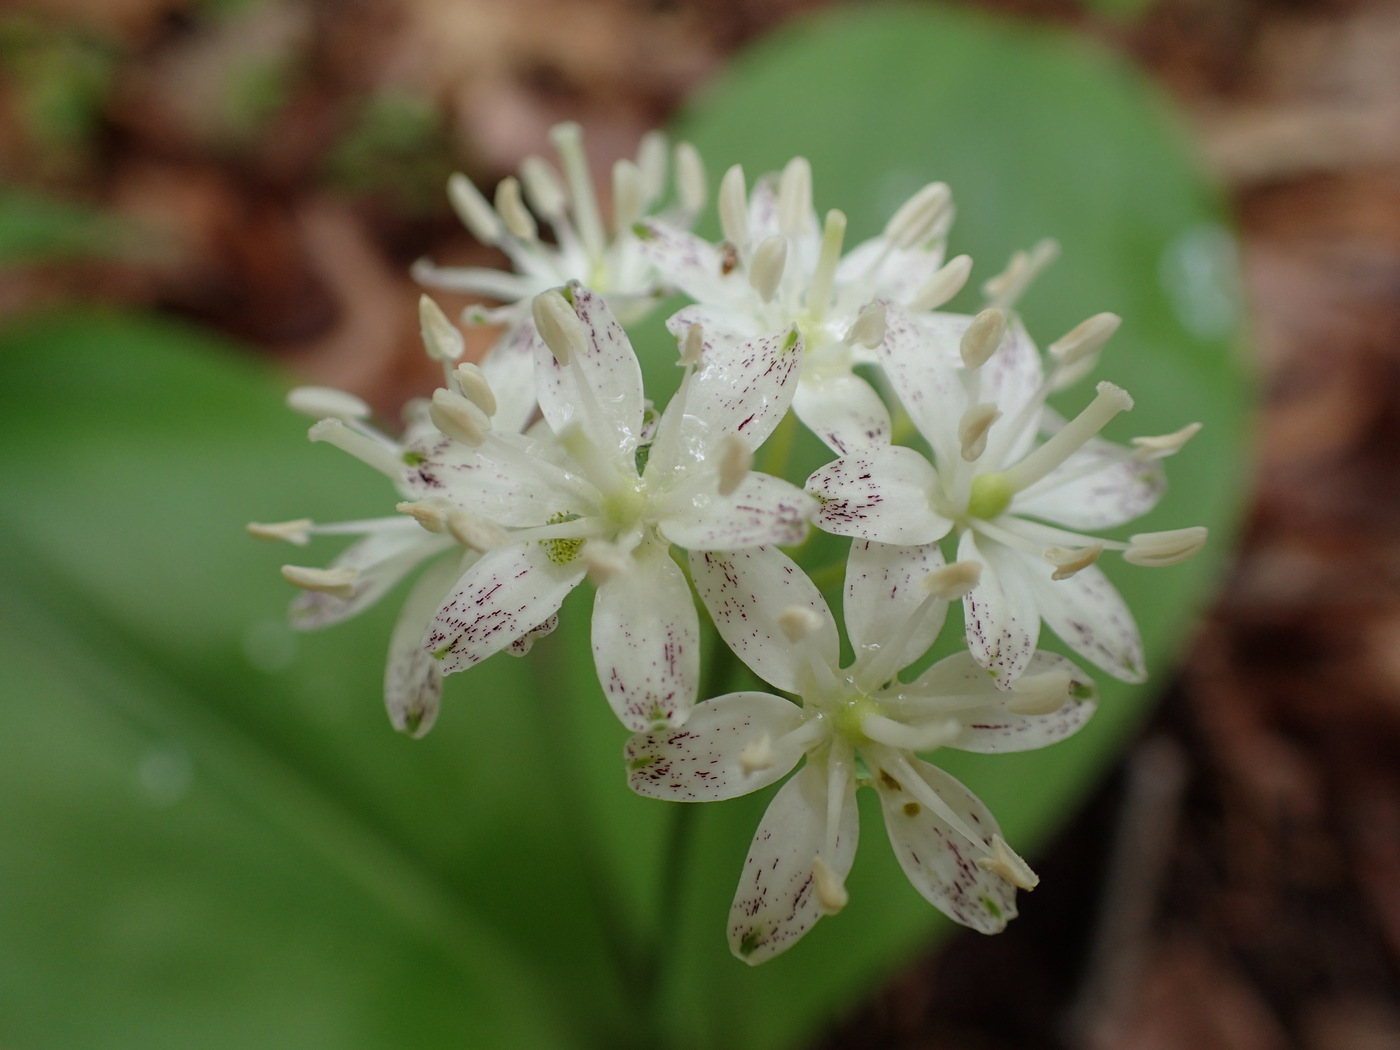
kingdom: Plantae
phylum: Tracheophyta
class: Liliopsida
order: Liliales
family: Liliaceae
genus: Clintonia
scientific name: Clintonia umbellulata
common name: Speckle wood-lily
